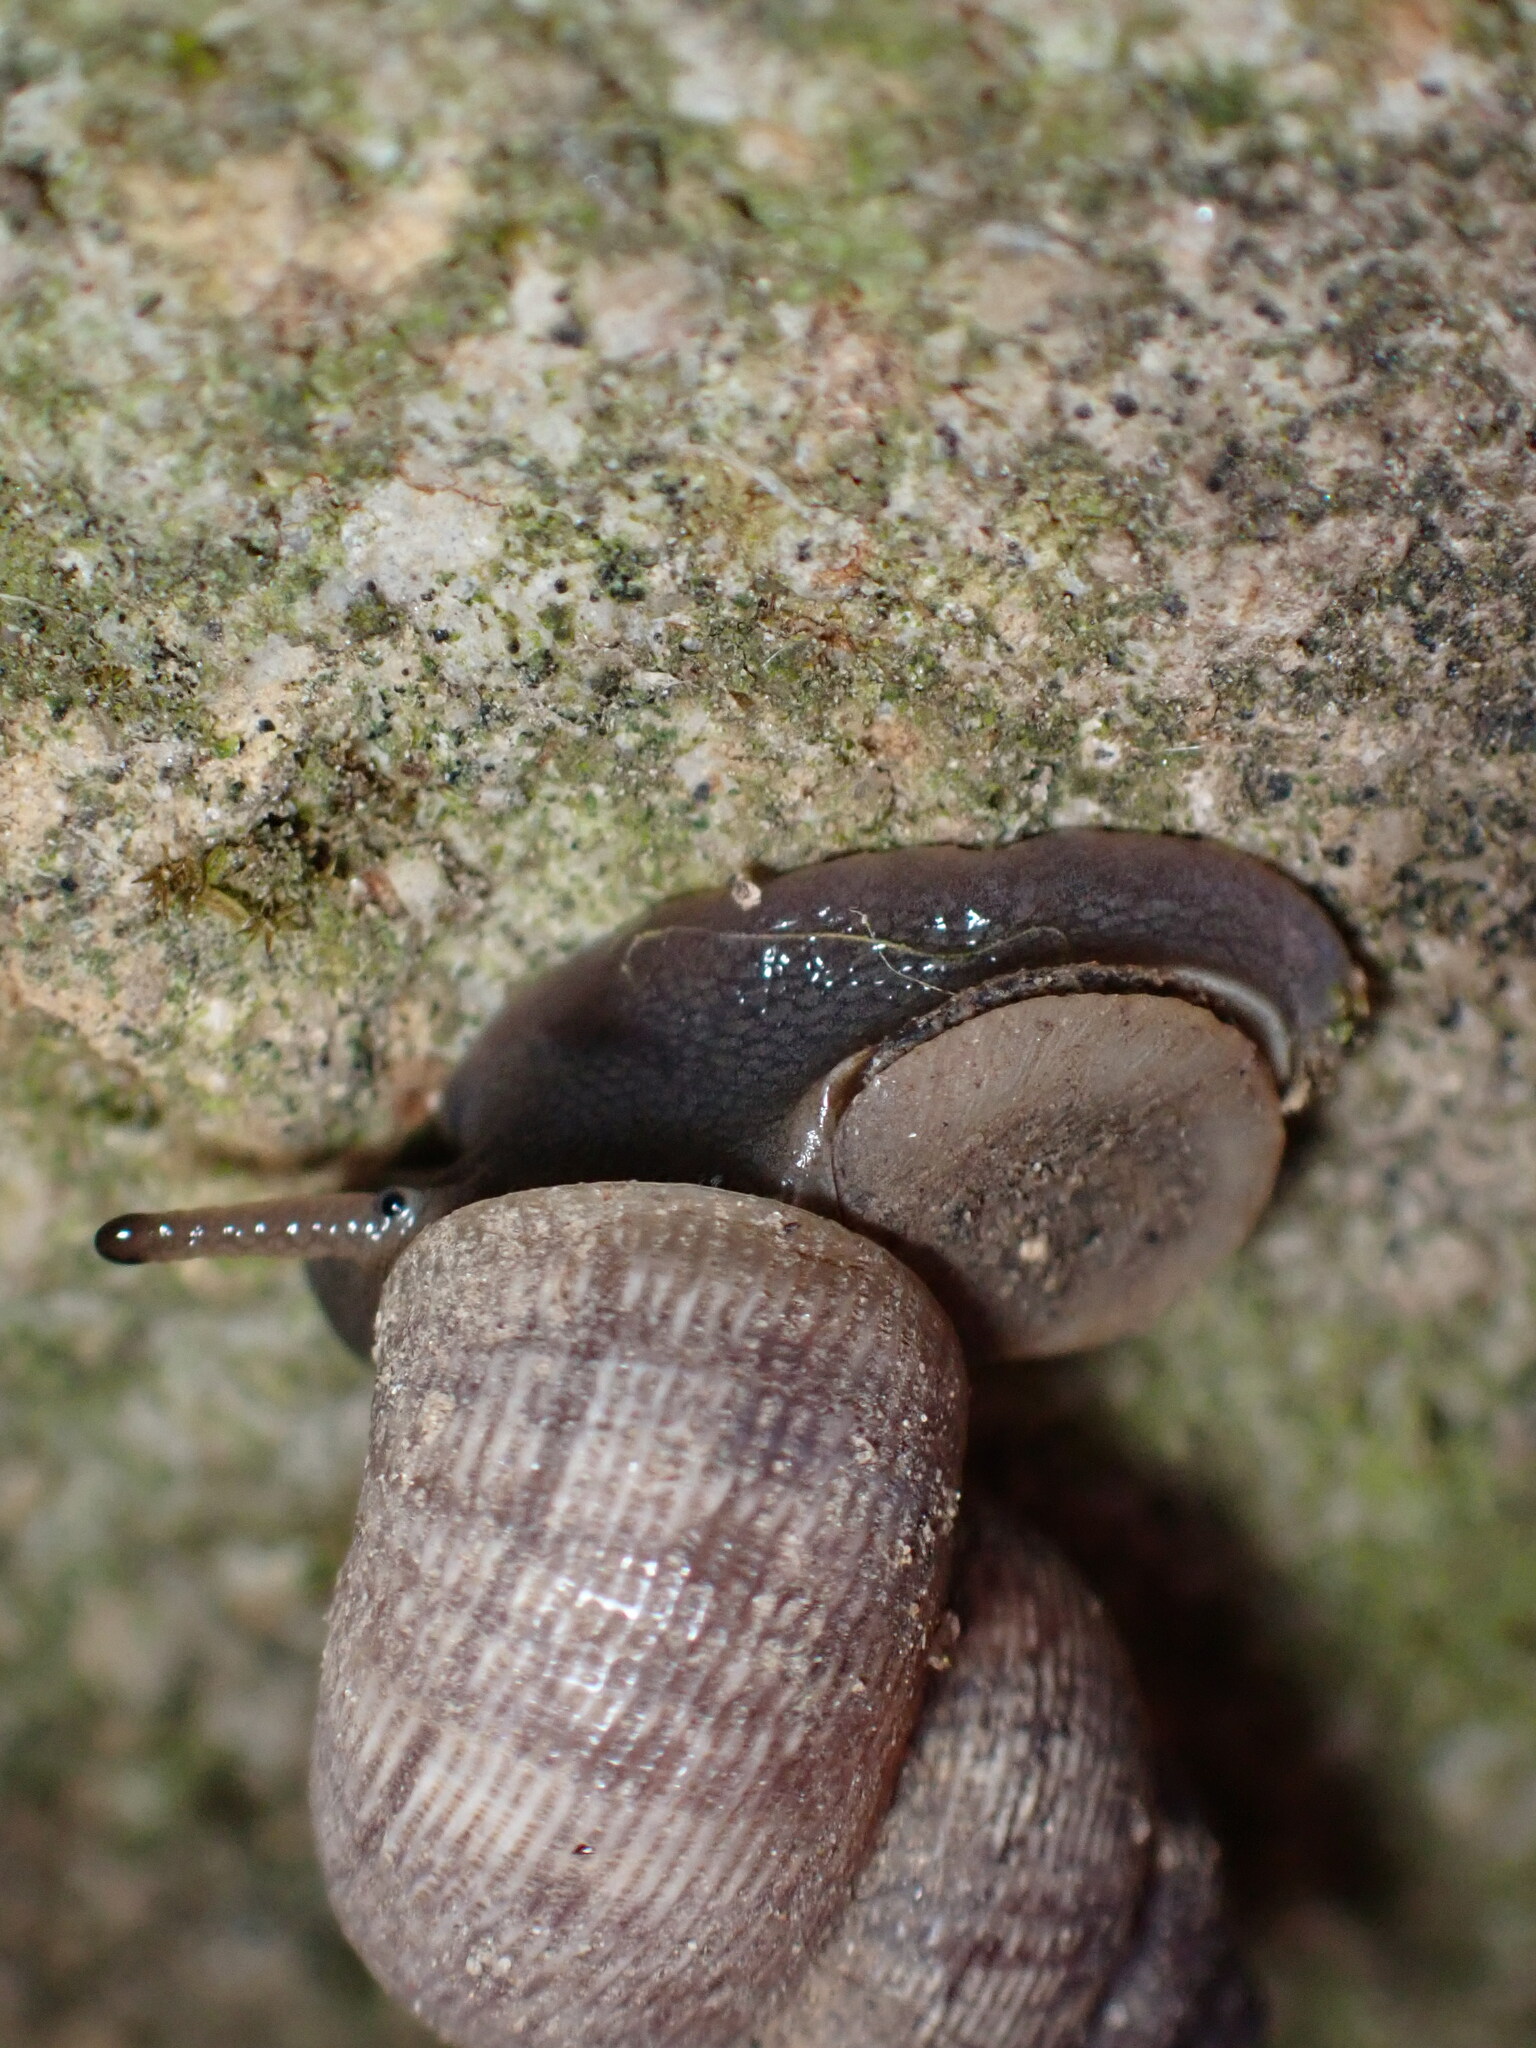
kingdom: Animalia
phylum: Mollusca
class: Gastropoda
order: Littorinimorpha
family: Pomatiidae
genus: Pomatias
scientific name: Pomatias elegans
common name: Red-mouthed snail
